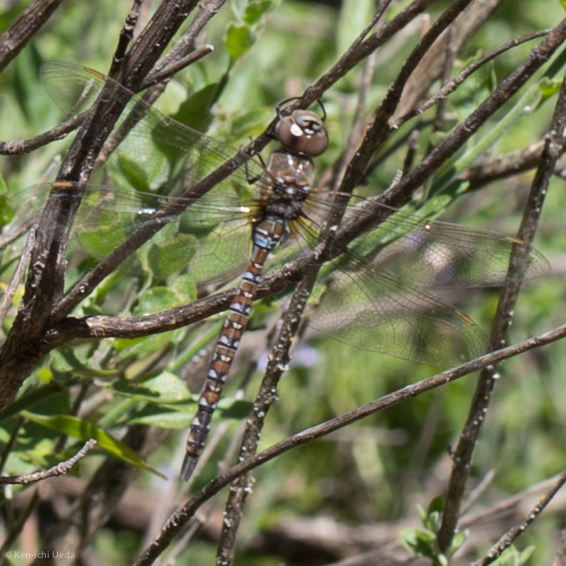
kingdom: Animalia
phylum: Arthropoda
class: Insecta
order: Odonata
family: Aeshnidae
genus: Rhionaeschna
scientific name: Rhionaeschna multicolor
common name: Blue-eyed darner
